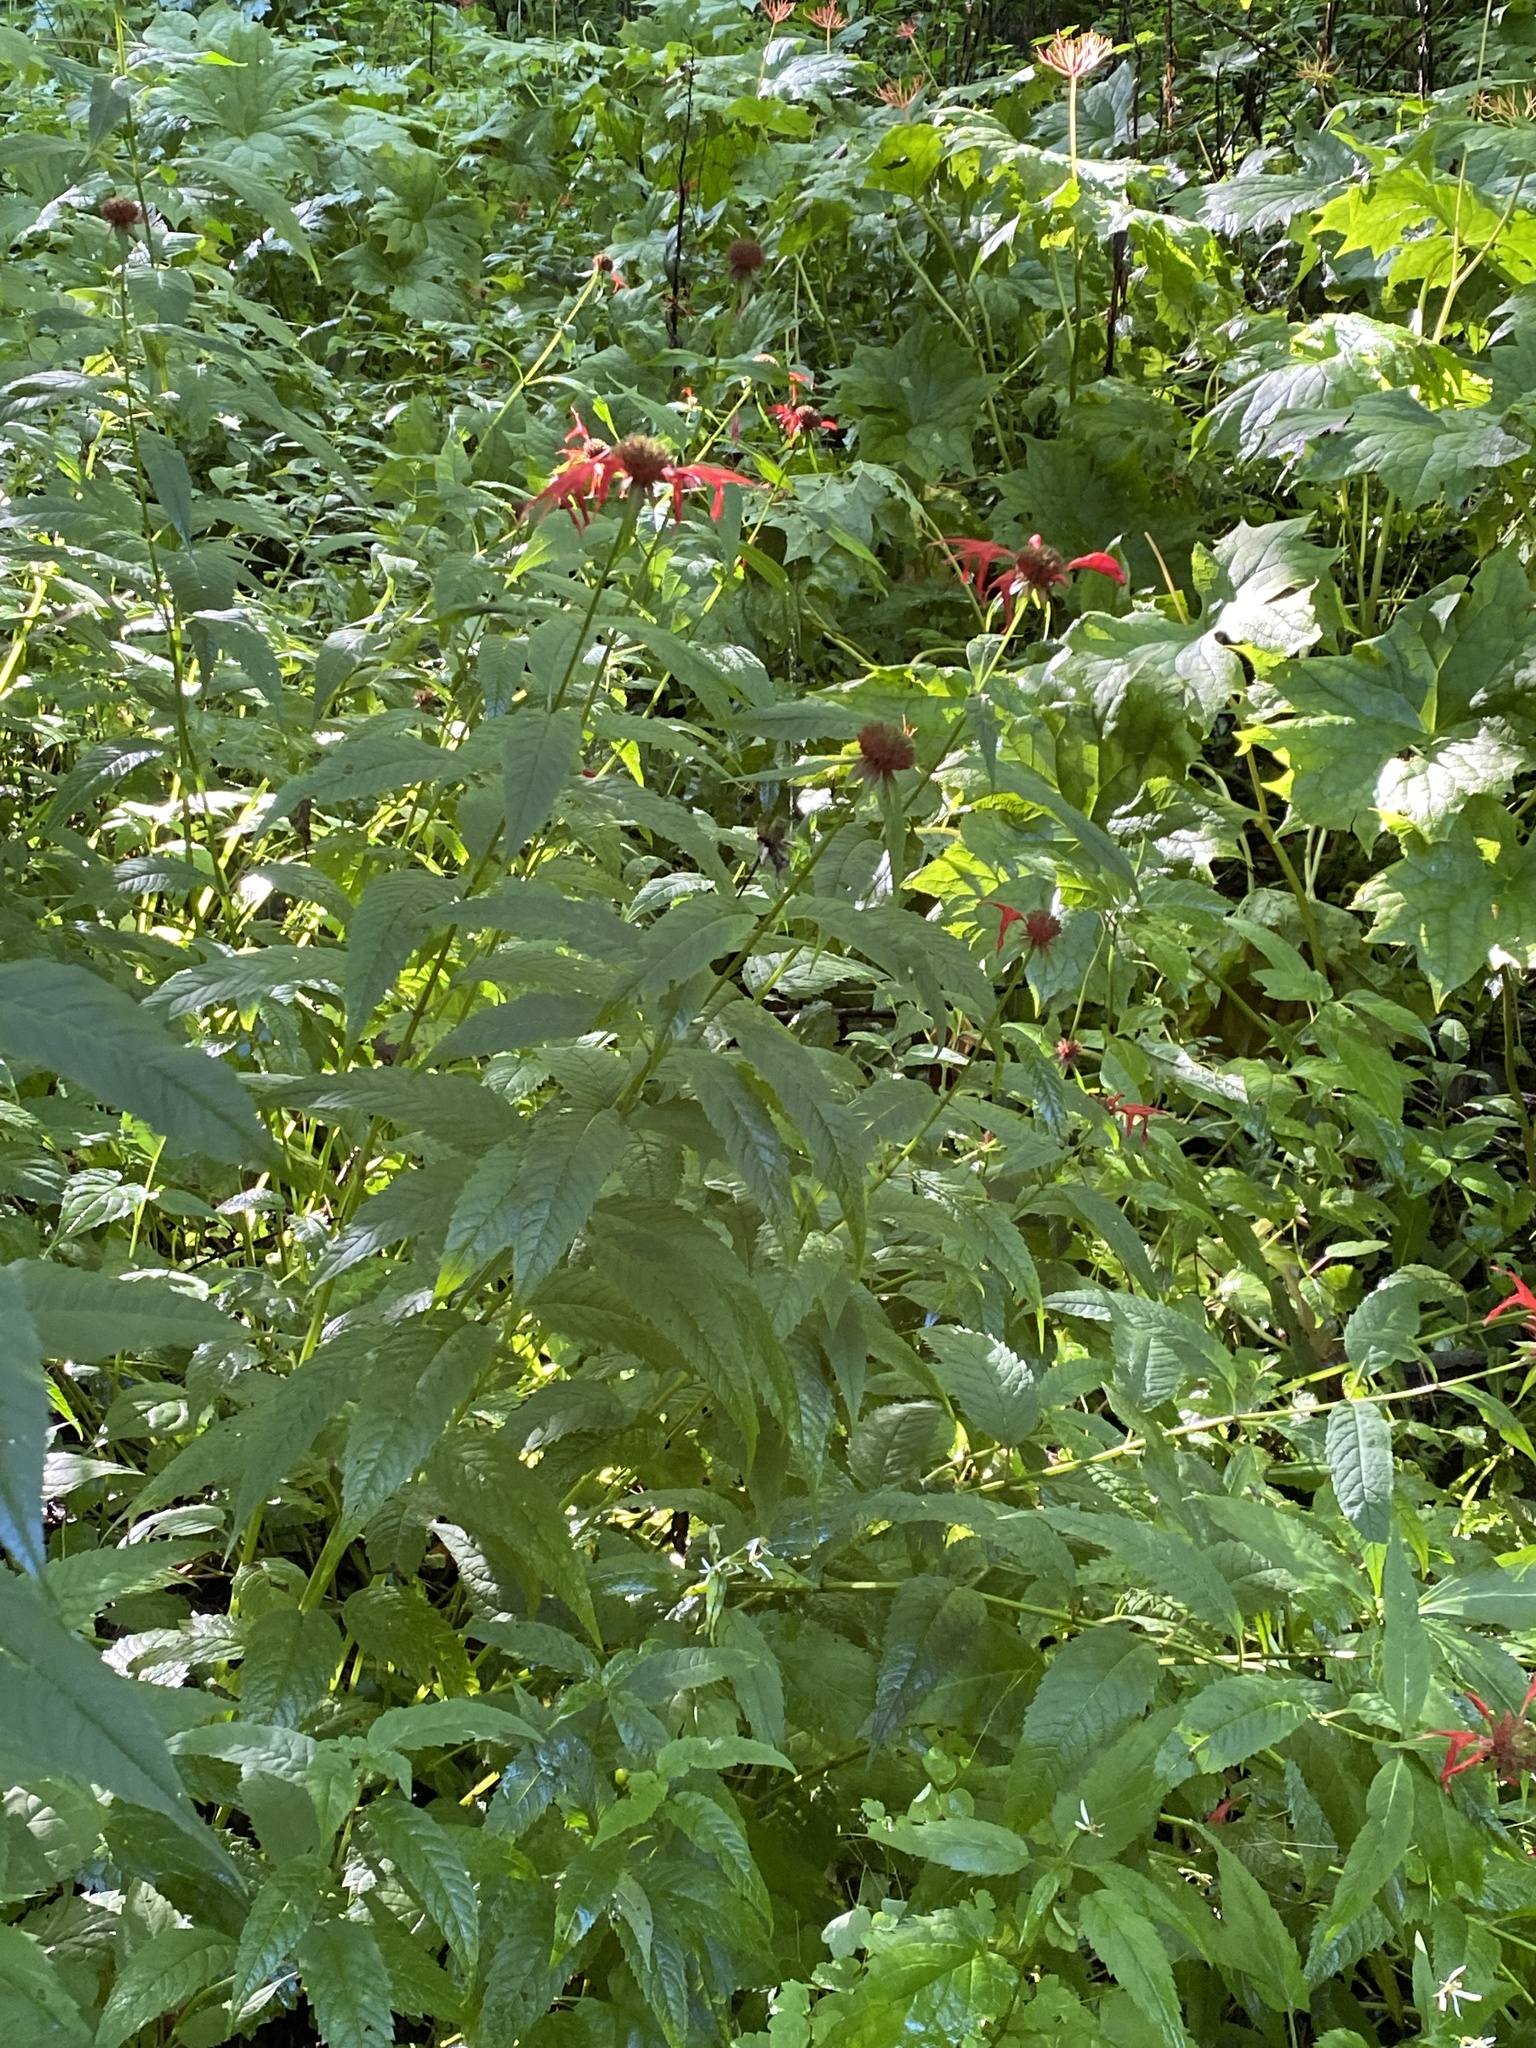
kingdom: Plantae
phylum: Tracheophyta
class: Magnoliopsida
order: Lamiales
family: Lamiaceae
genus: Monarda
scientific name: Monarda didyma
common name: Beebalm
